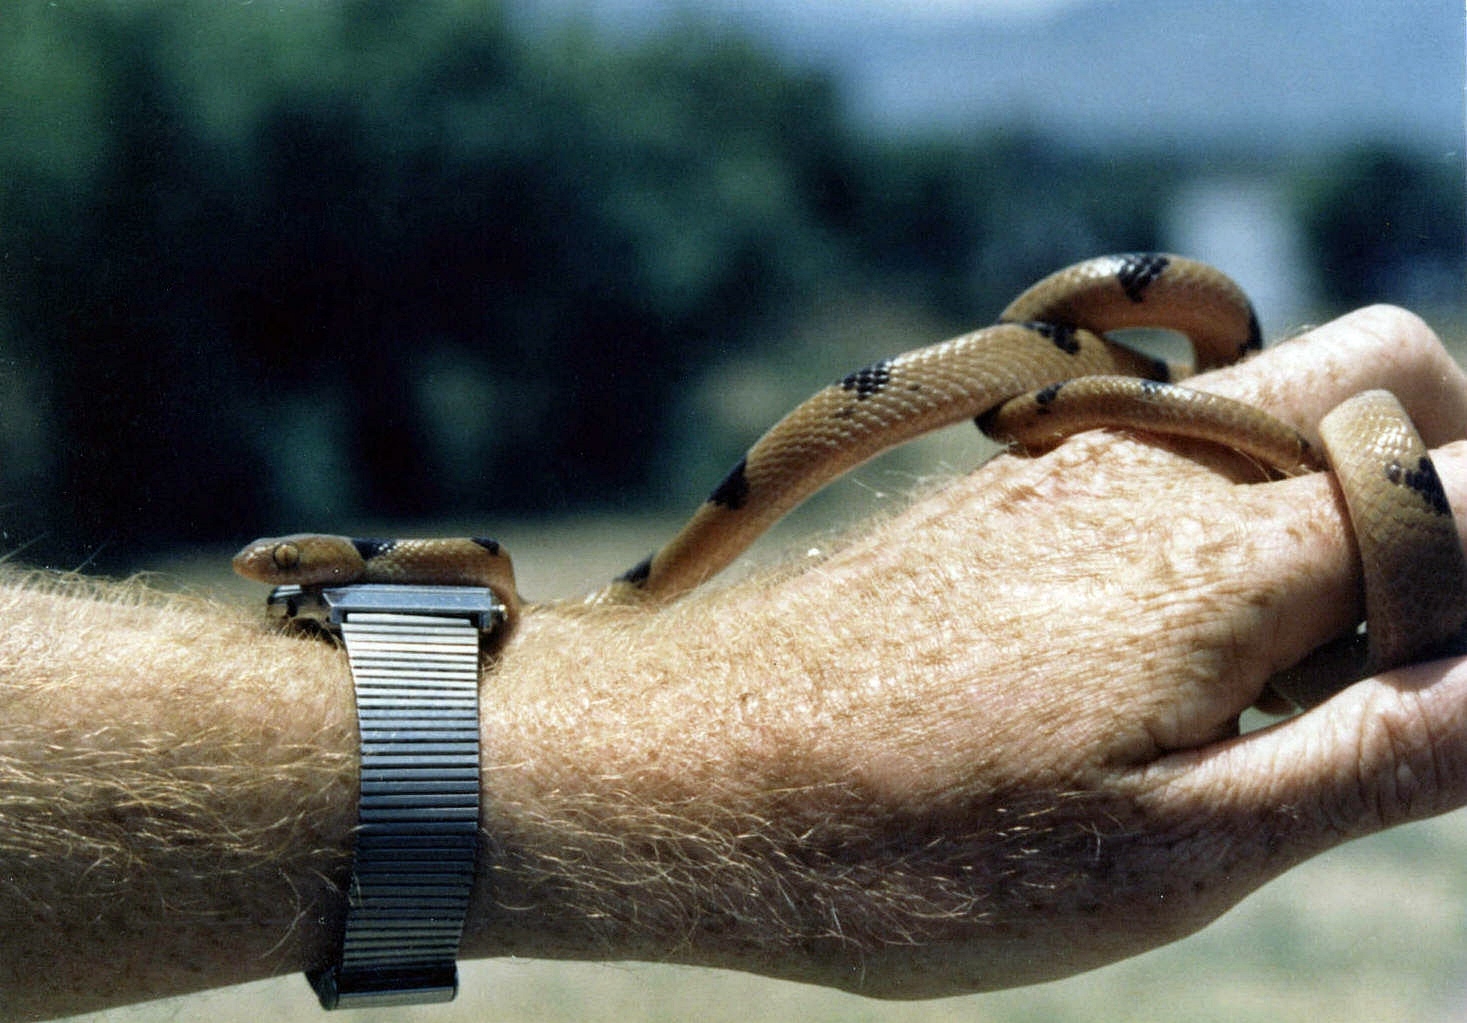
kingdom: Animalia
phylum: Chordata
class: Squamata
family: Colubridae
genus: Telescopus
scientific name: Telescopus semiannulatus
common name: Common tiger snake
